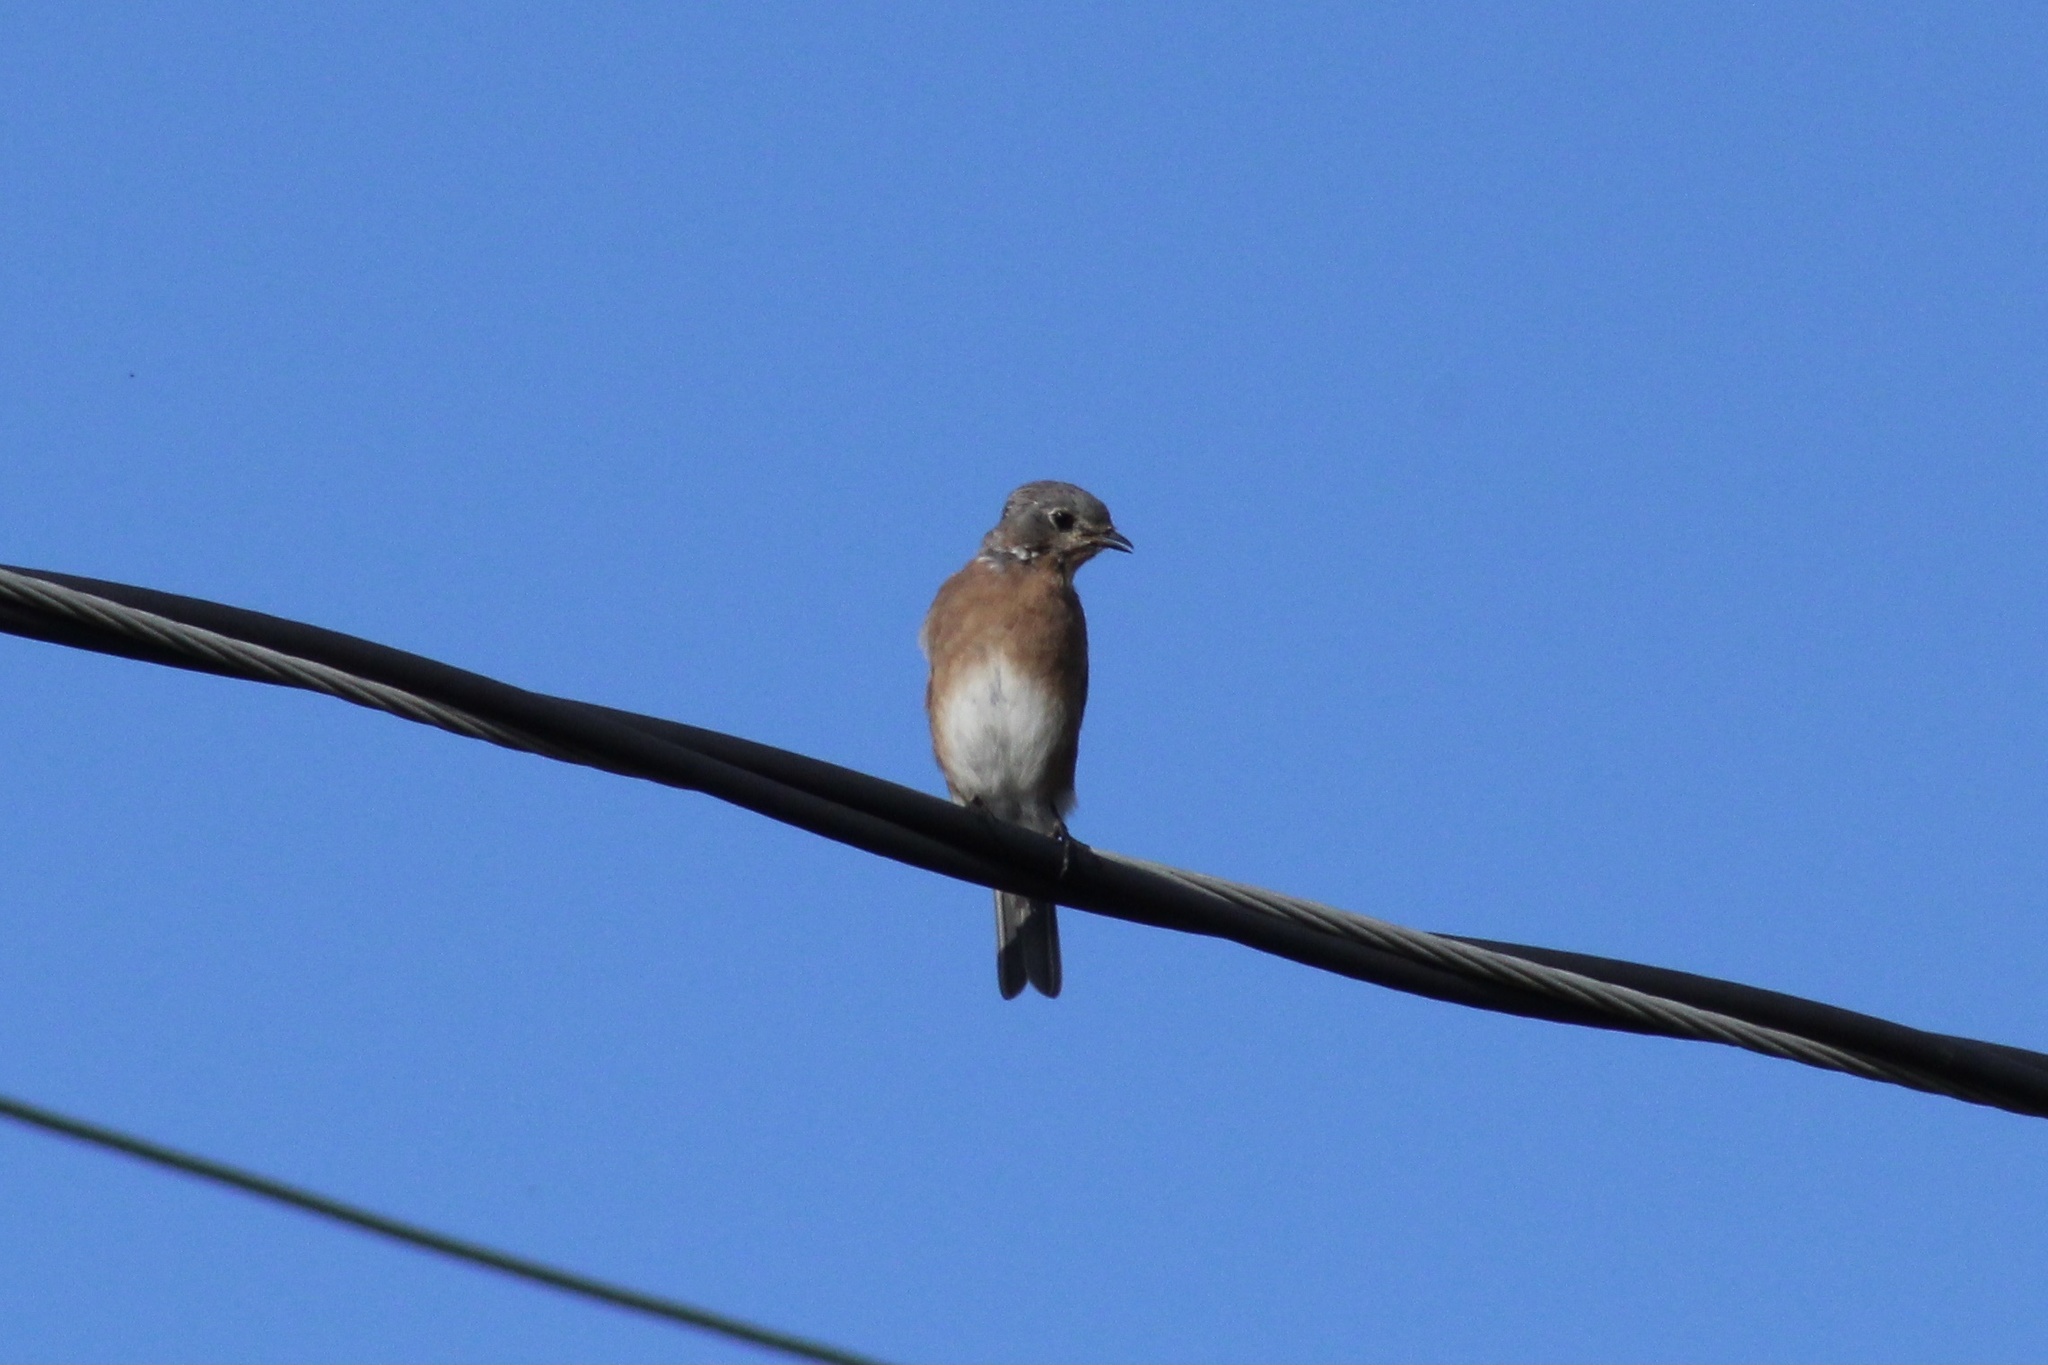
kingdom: Animalia
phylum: Chordata
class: Aves
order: Passeriformes
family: Turdidae
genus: Sialia
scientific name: Sialia sialis
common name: Eastern bluebird
